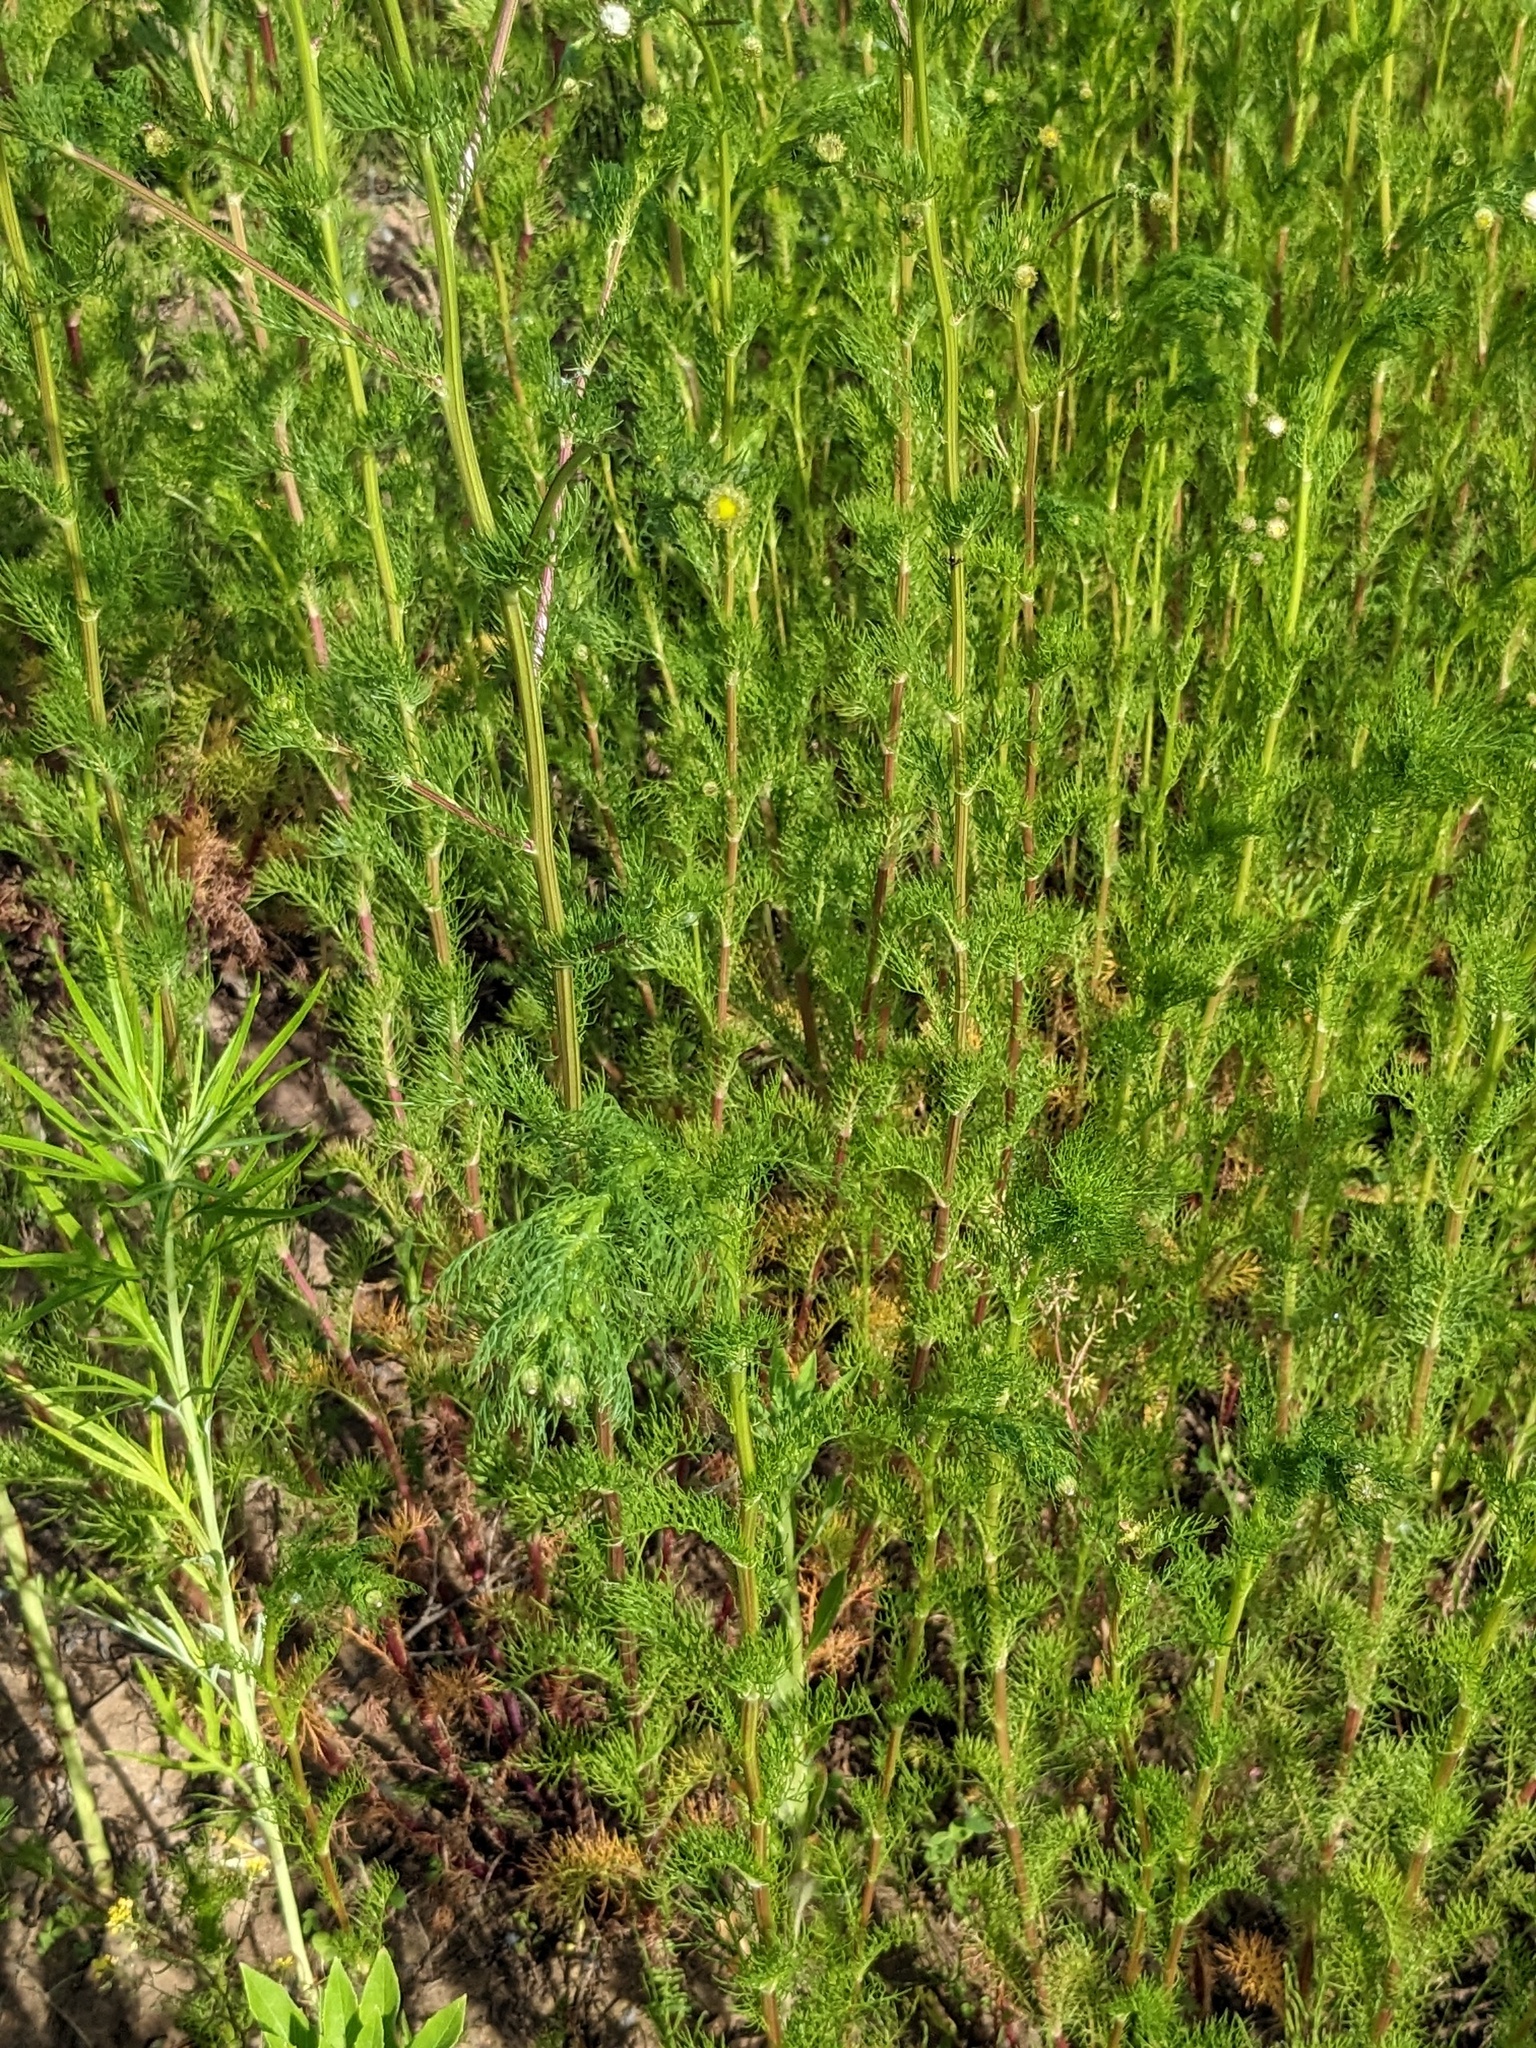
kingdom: Plantae
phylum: Tracheophyta
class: Magnoliopsida
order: Asterales
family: Asteraceae
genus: Tripleurospermum
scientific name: Tripleurospermum inodorum
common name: Scentless mayweed
